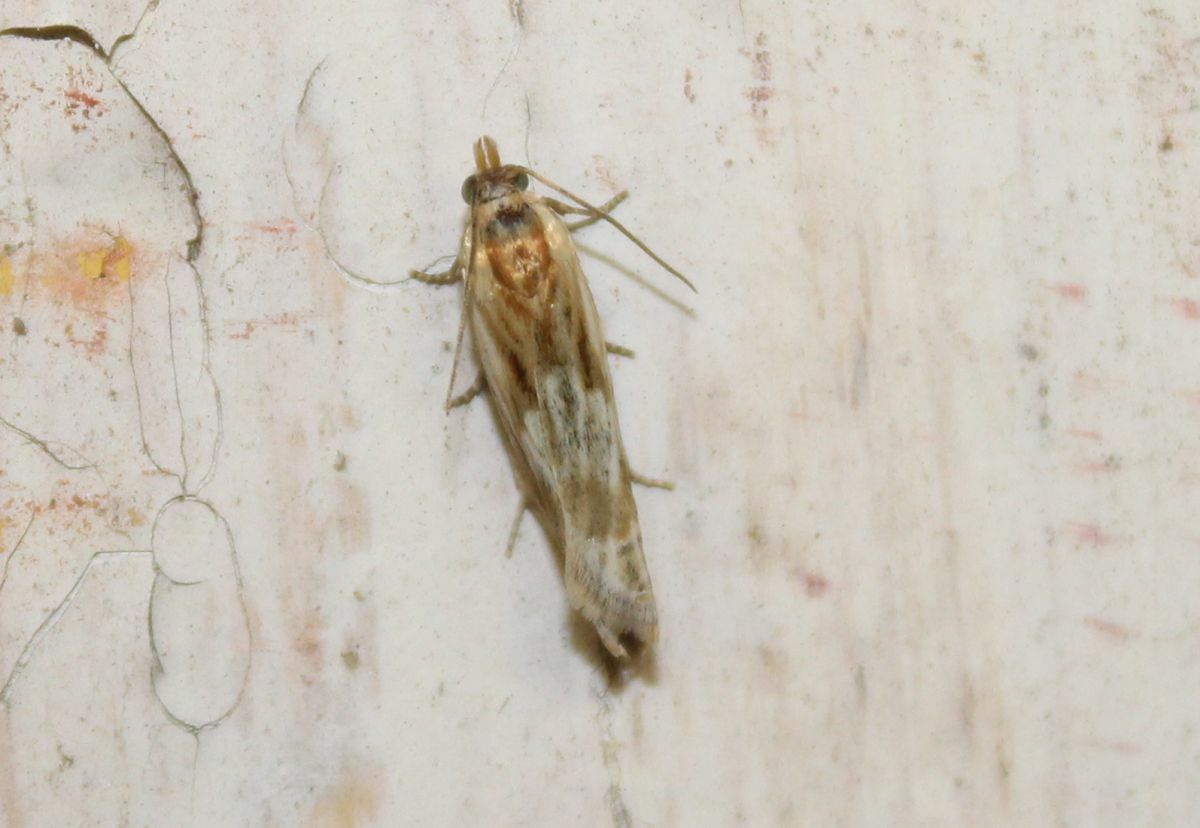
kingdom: Animalia
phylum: Arthropoda
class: Insecta
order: Lepidoptera
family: Tortricidae
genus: Eucosma
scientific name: Eucosma cana
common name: Hoary belle
